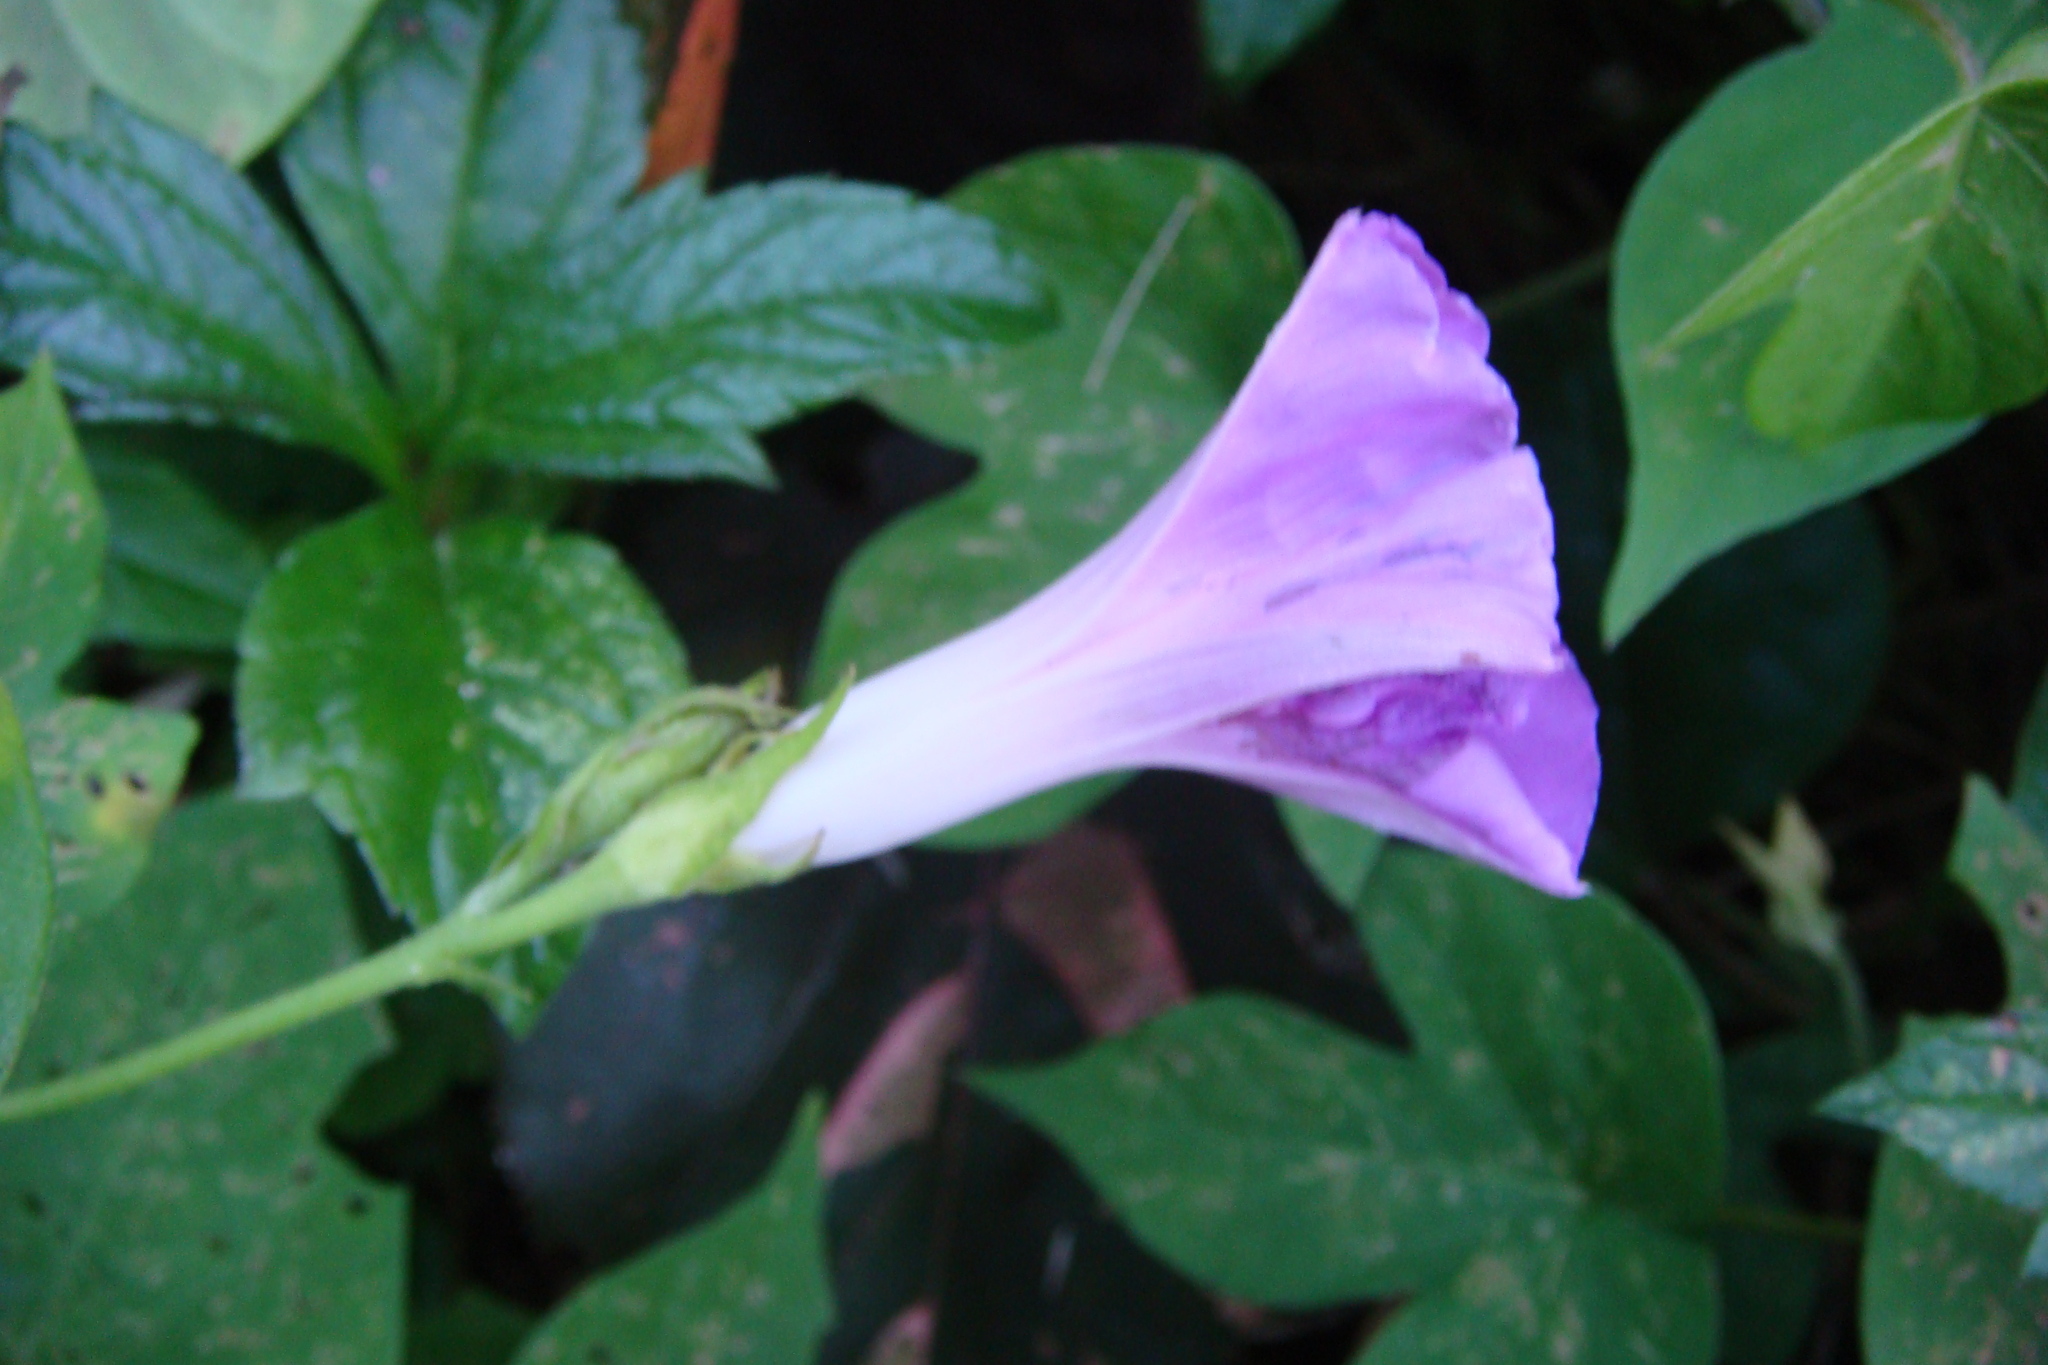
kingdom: Plantae
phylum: Tracheophyta
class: Magnoliopsida
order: Solanales
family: Convolvulaceae
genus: Ipomoea
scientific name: Ipomoea indica
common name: Blue dawnflower
